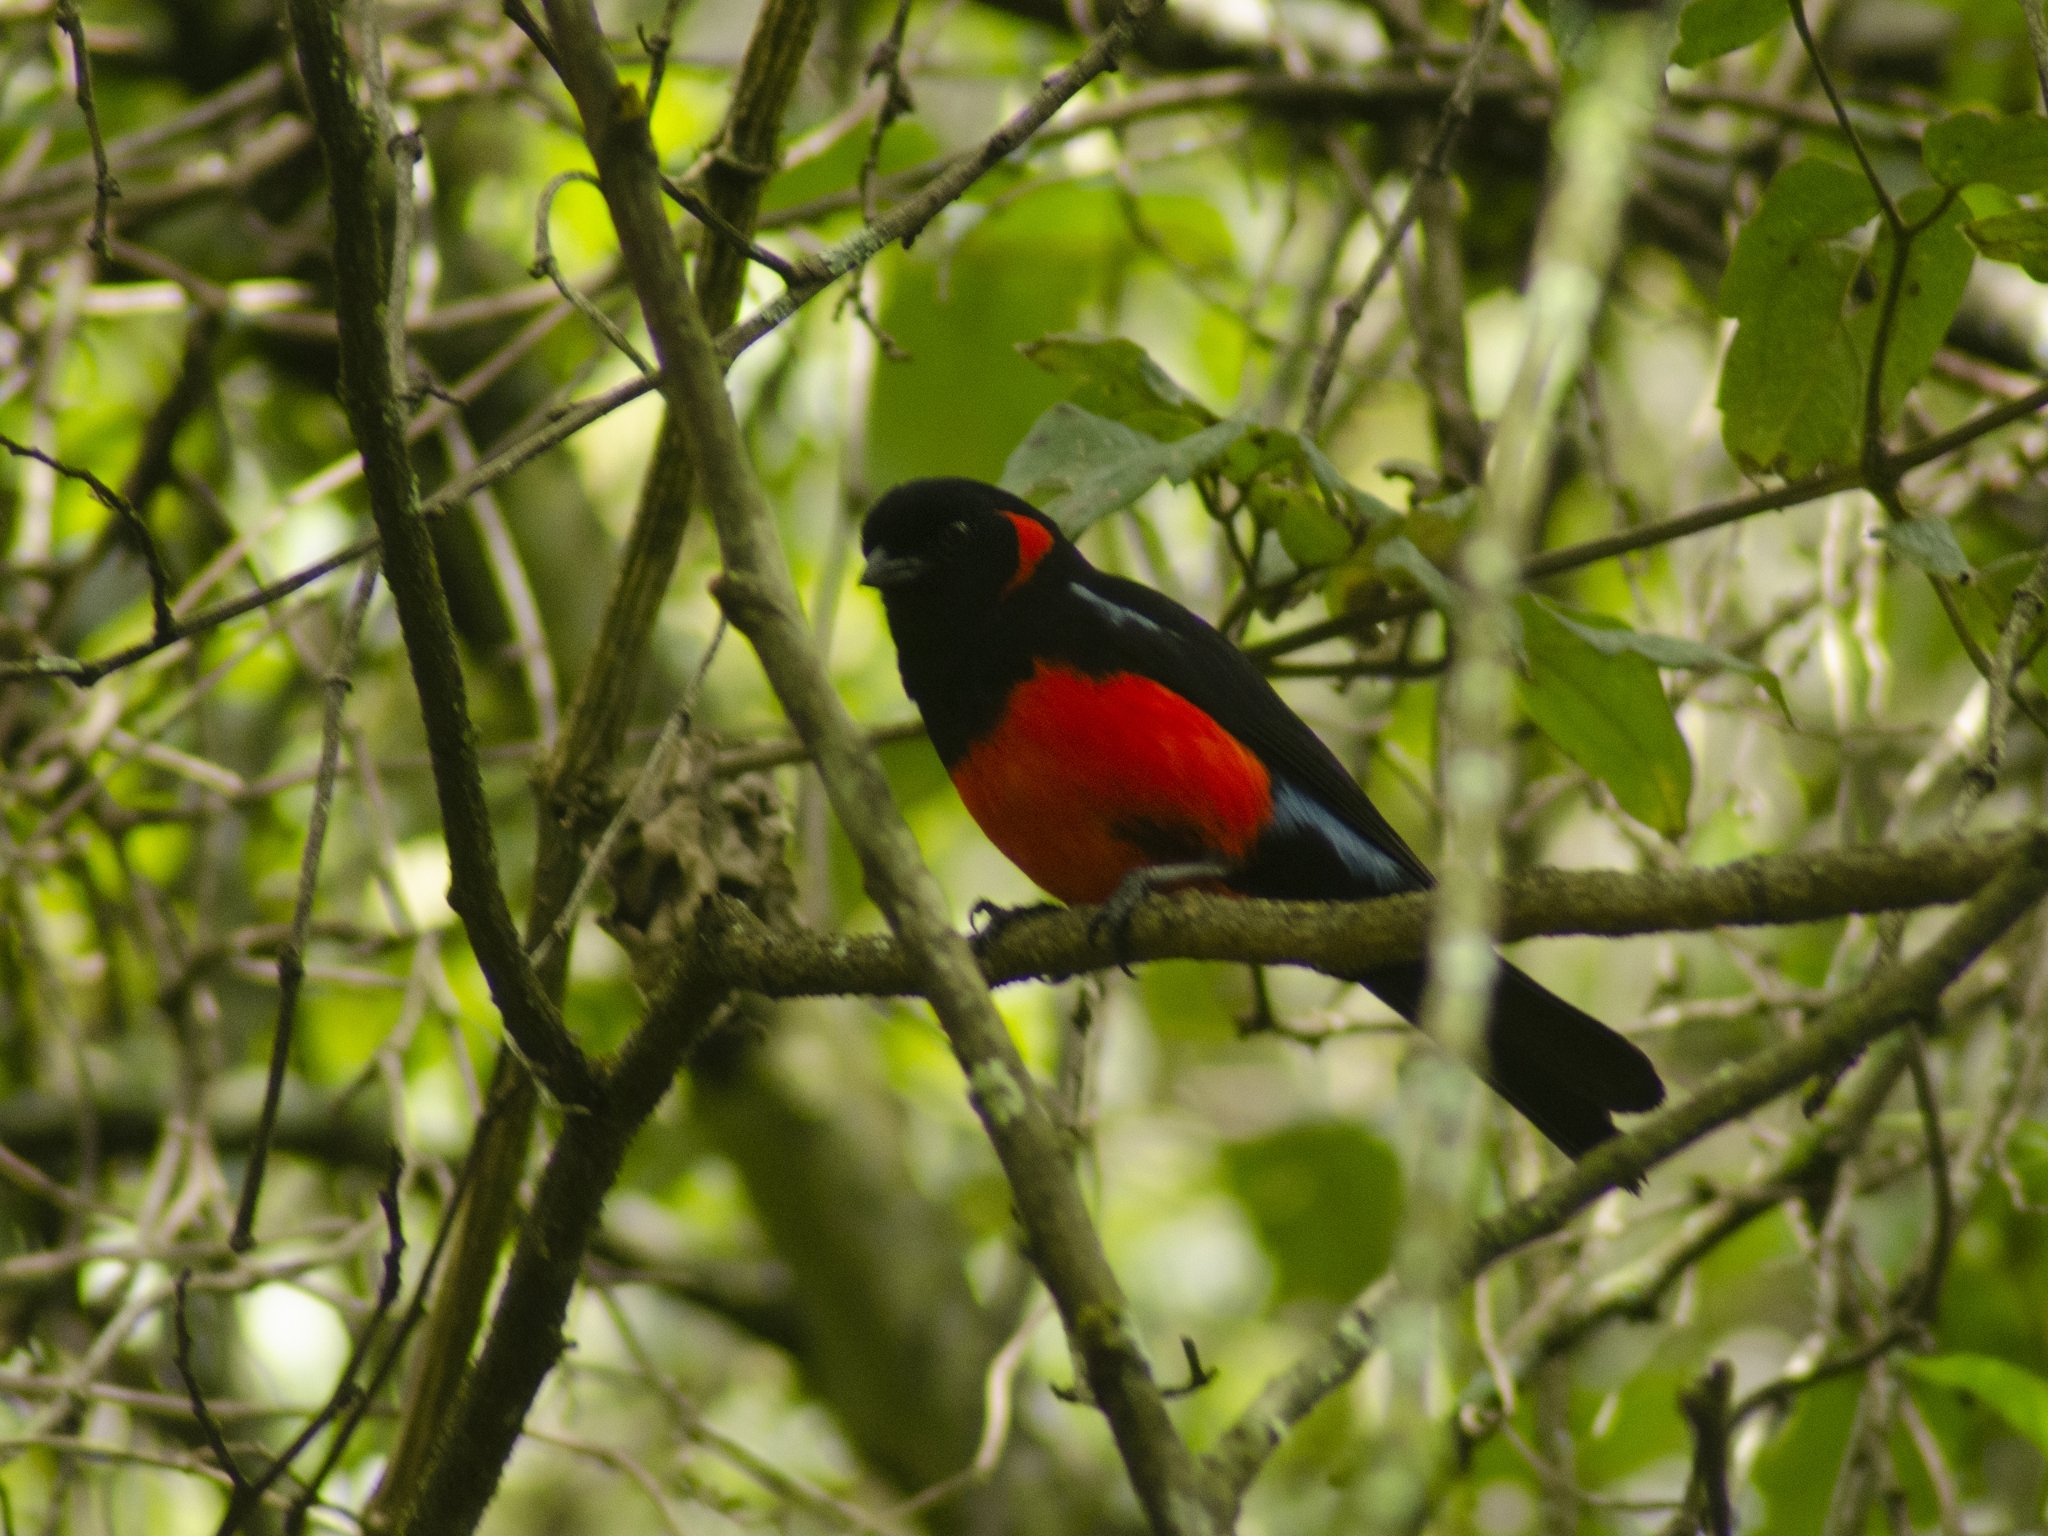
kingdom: Animalia
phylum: Chordata
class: Aves
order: Passeriformes
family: Thraupidae
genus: Anisognathus
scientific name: Anisognathus igniventris
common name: Scarlet-bellied mountain tanager
